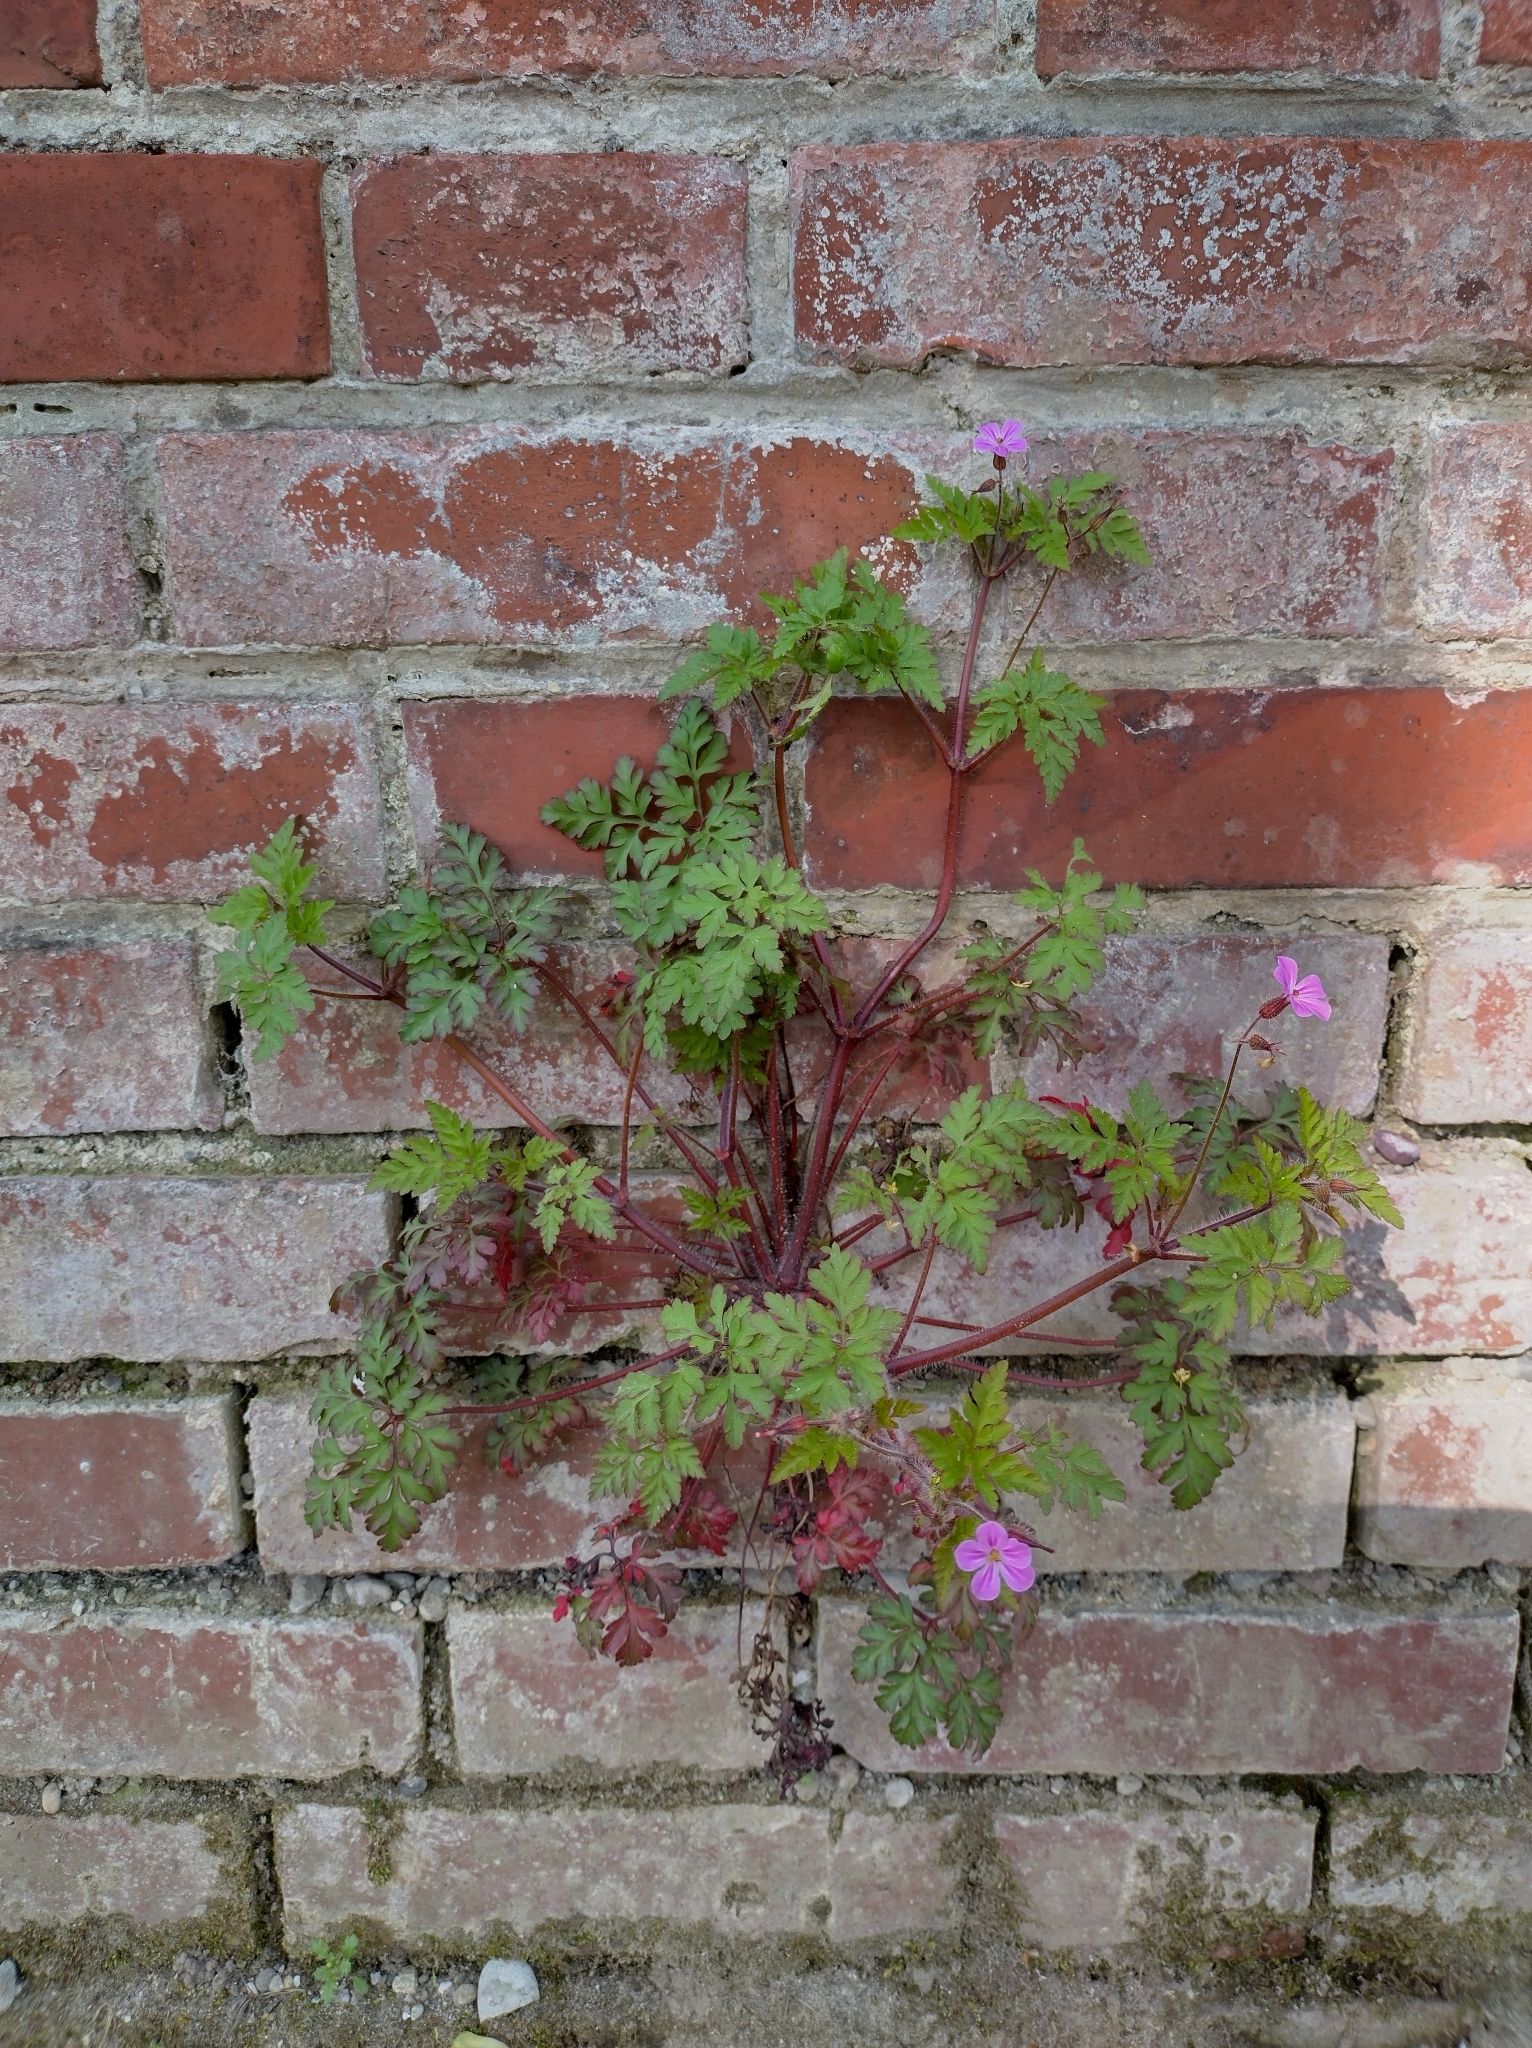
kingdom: Plantae
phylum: Tracheophyta
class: Magnoliopsida
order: Geraniales
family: Geraniaceae
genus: Geranium
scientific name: Geranium robertianum
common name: Herb-robert
